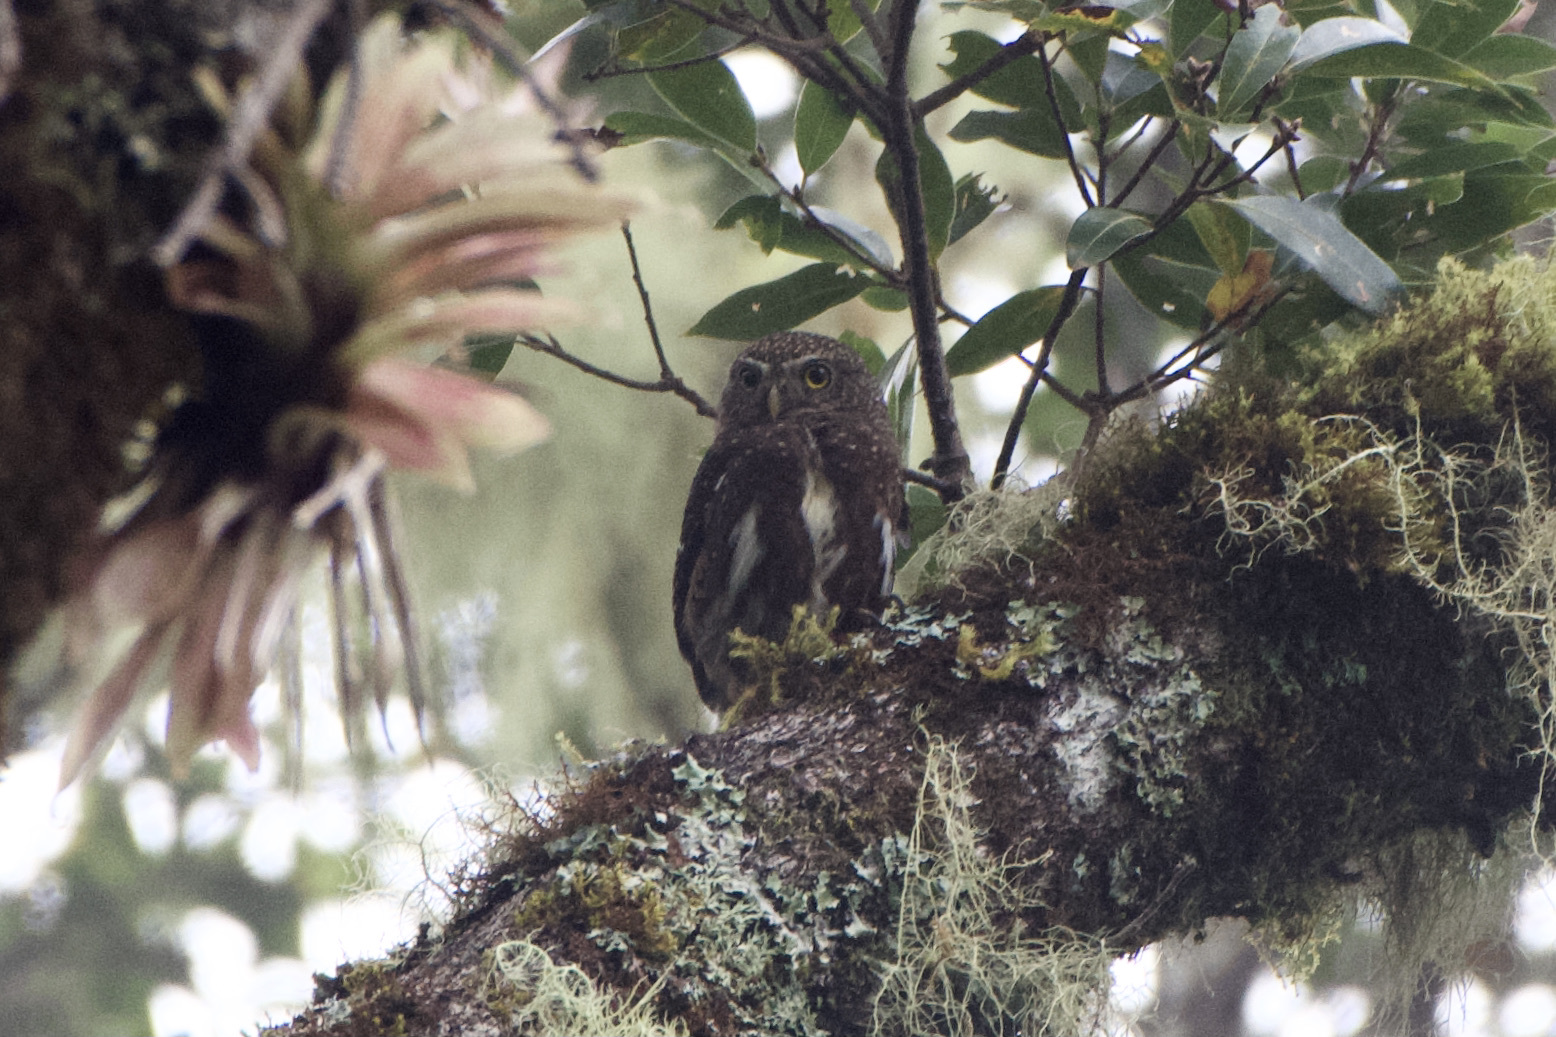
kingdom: Animalia
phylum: Chordata
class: Aves
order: Strigiformes
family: Strigidae
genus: Glaucidium
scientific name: Glaucidium costaricanum
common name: Costa rican pygmy-owl
